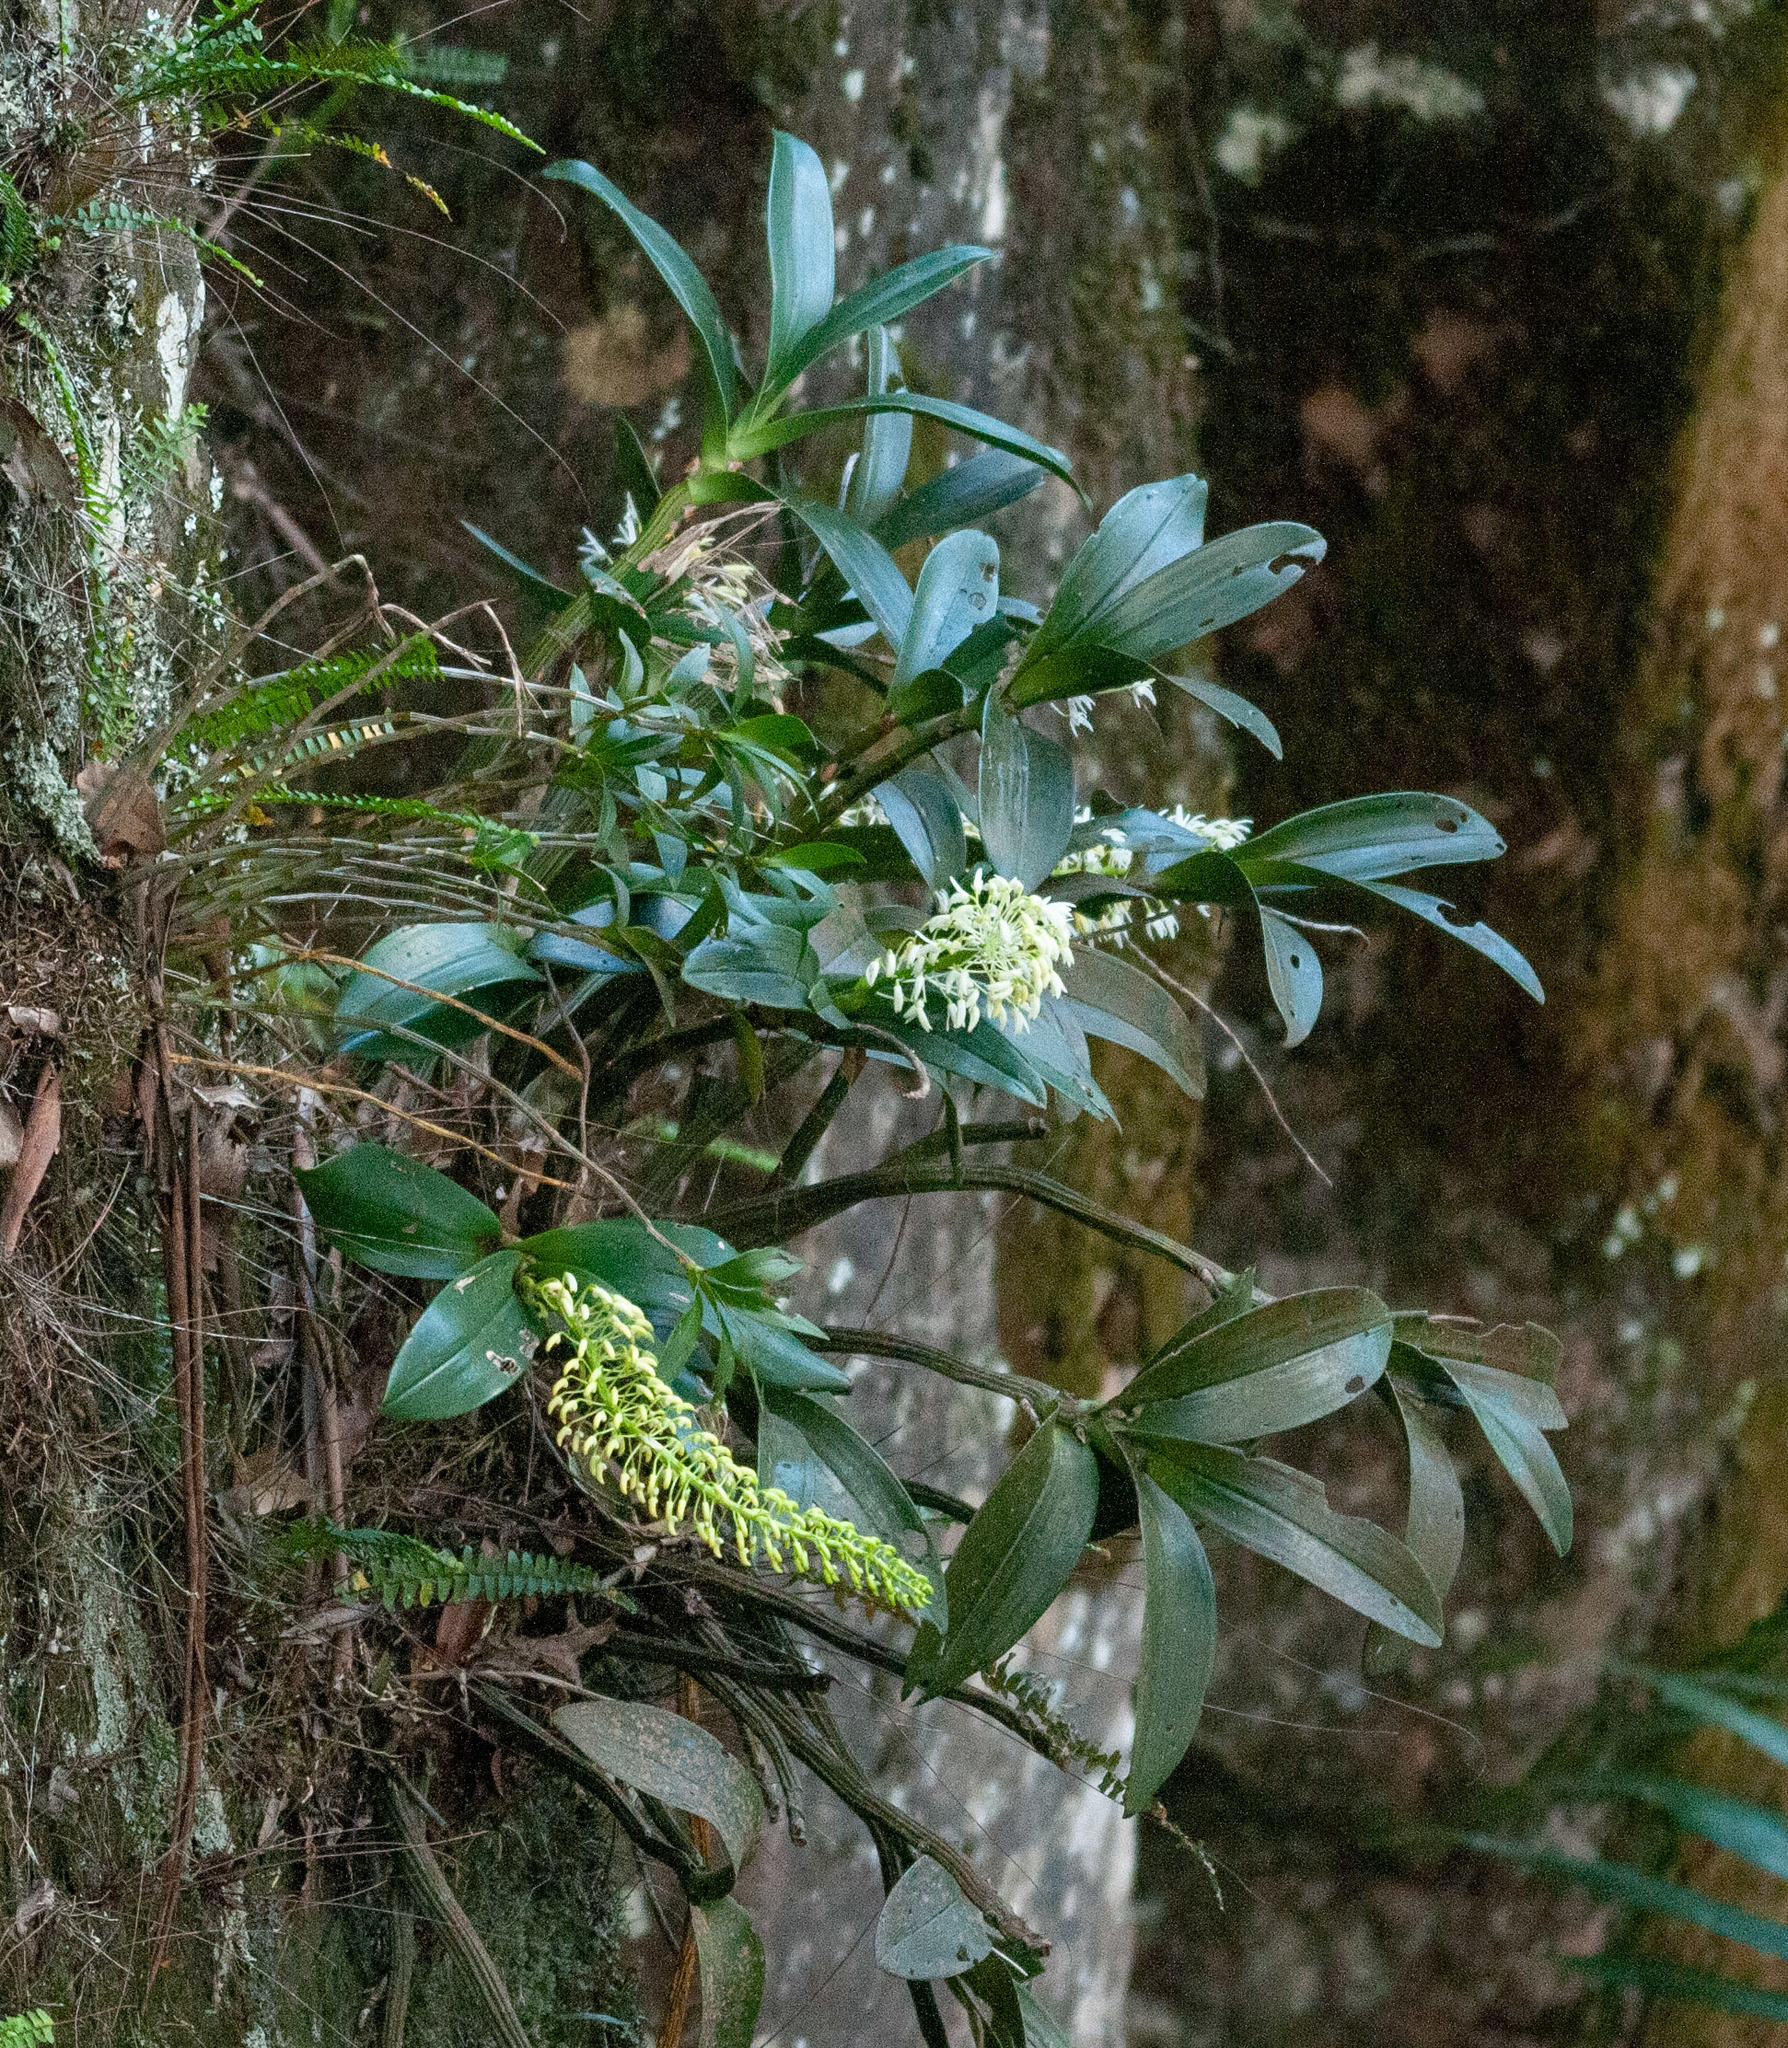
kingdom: Plantae
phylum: Tracheophyta
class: Liliopsida
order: Asparagales
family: Orchidaceae
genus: Dendrobium
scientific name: Dendrobium speciosum
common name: Rock-lily
